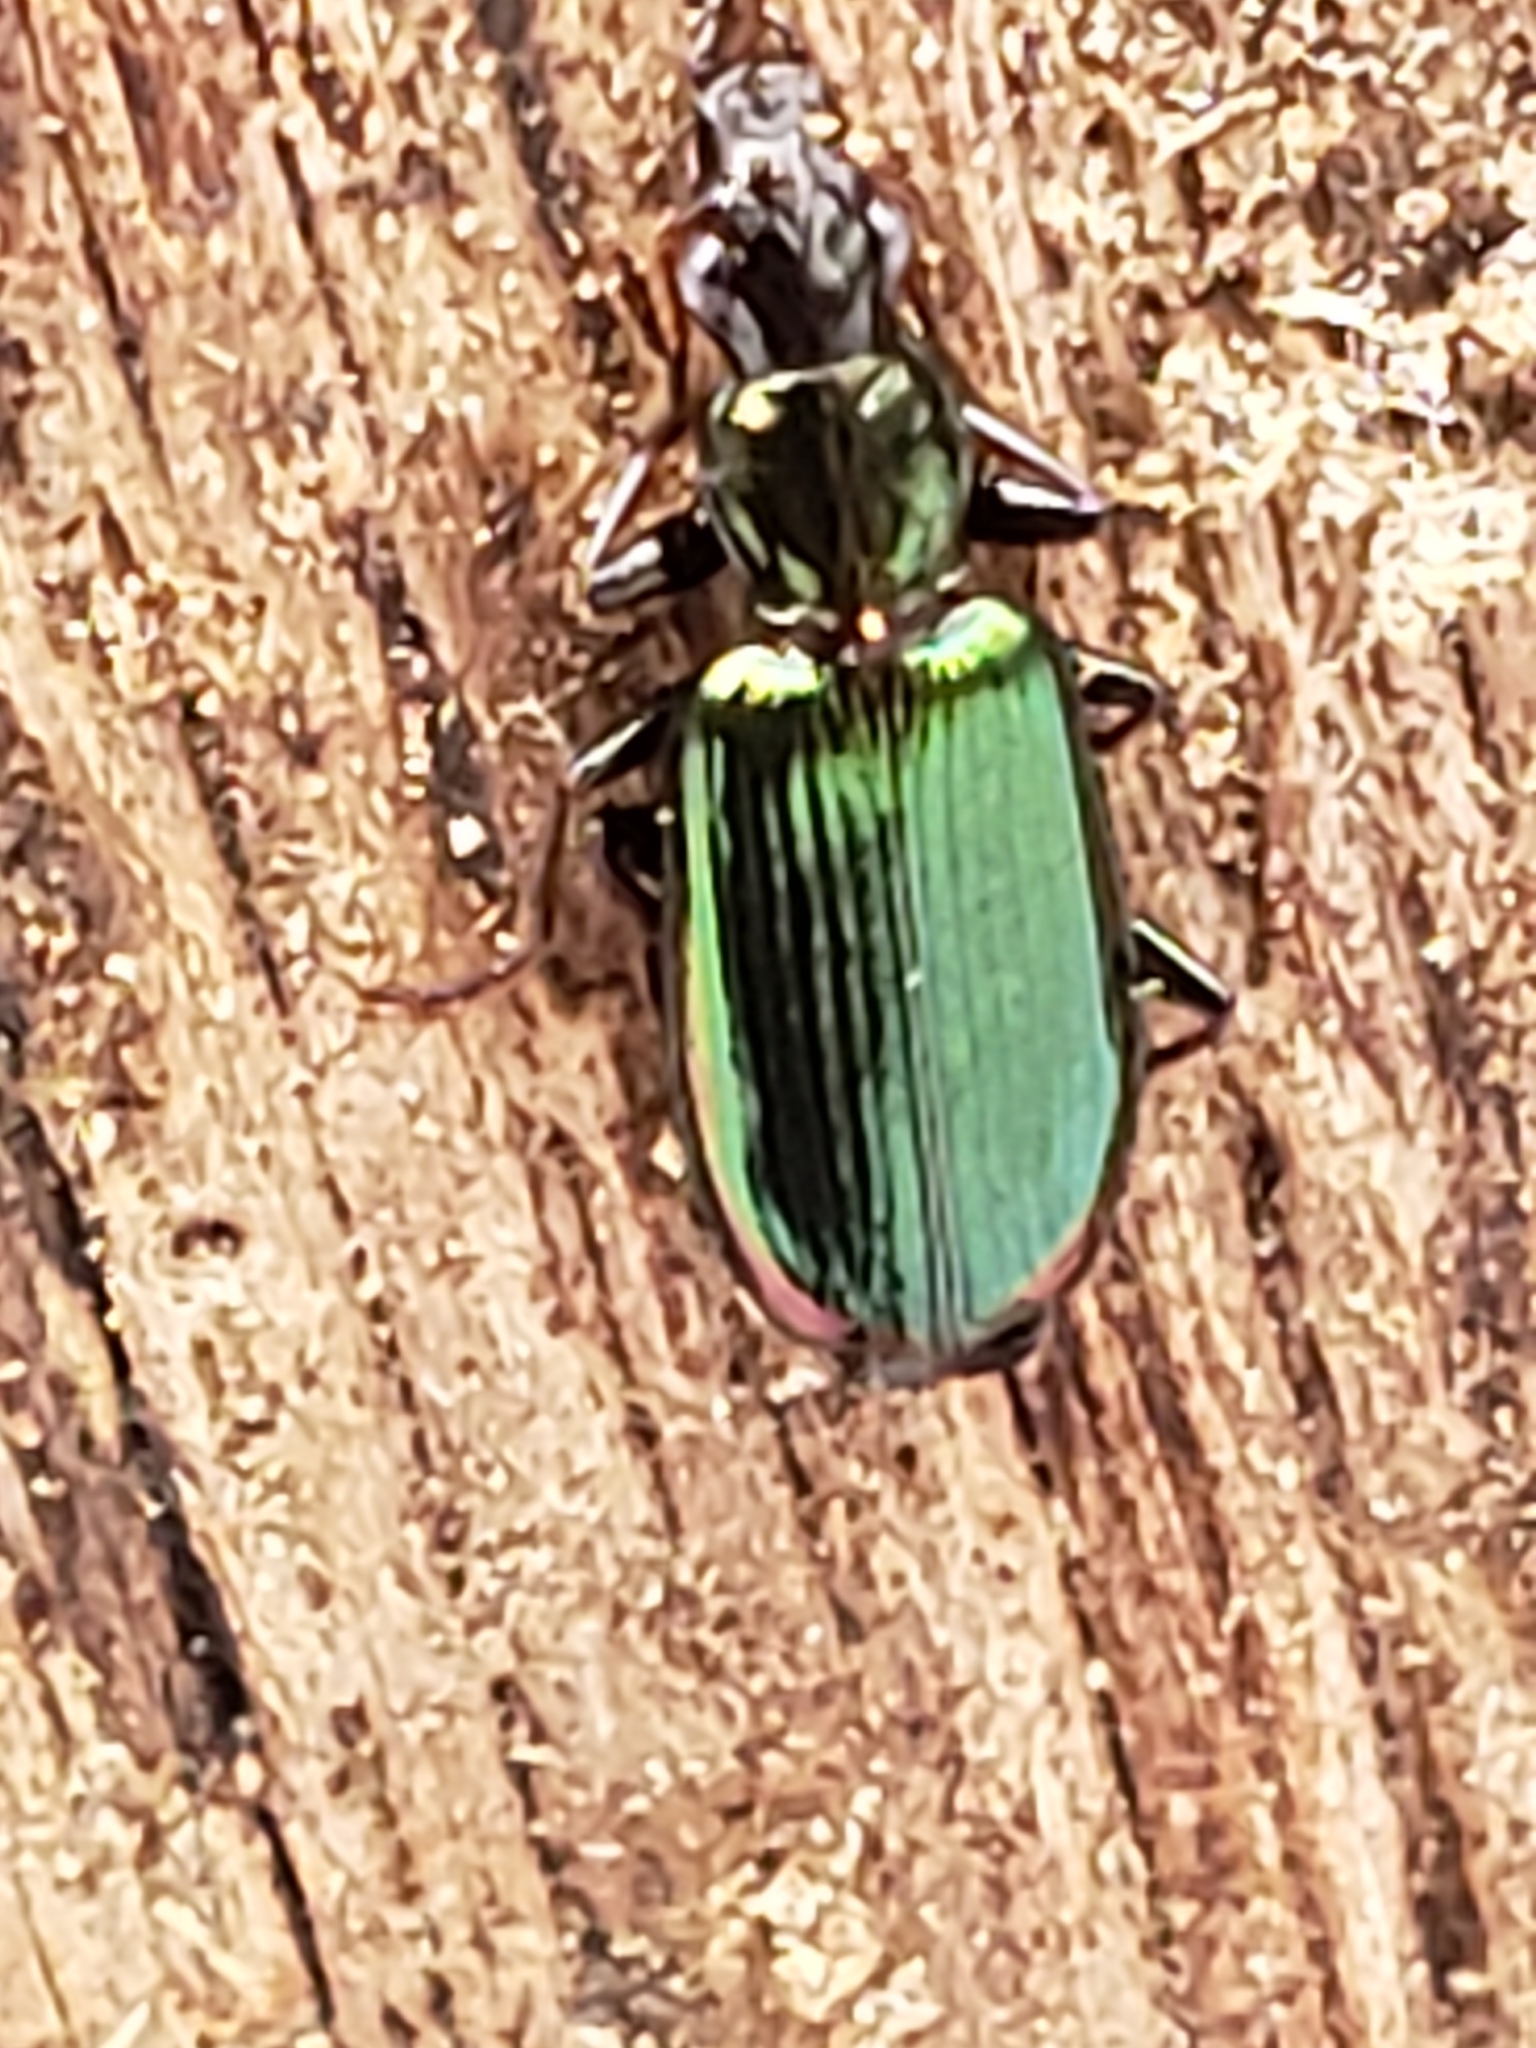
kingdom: Animalia
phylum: Arthropoda
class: Insecta
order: Coleoptera
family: Carabidae
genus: Calleida
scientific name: Calleida viridipennis
